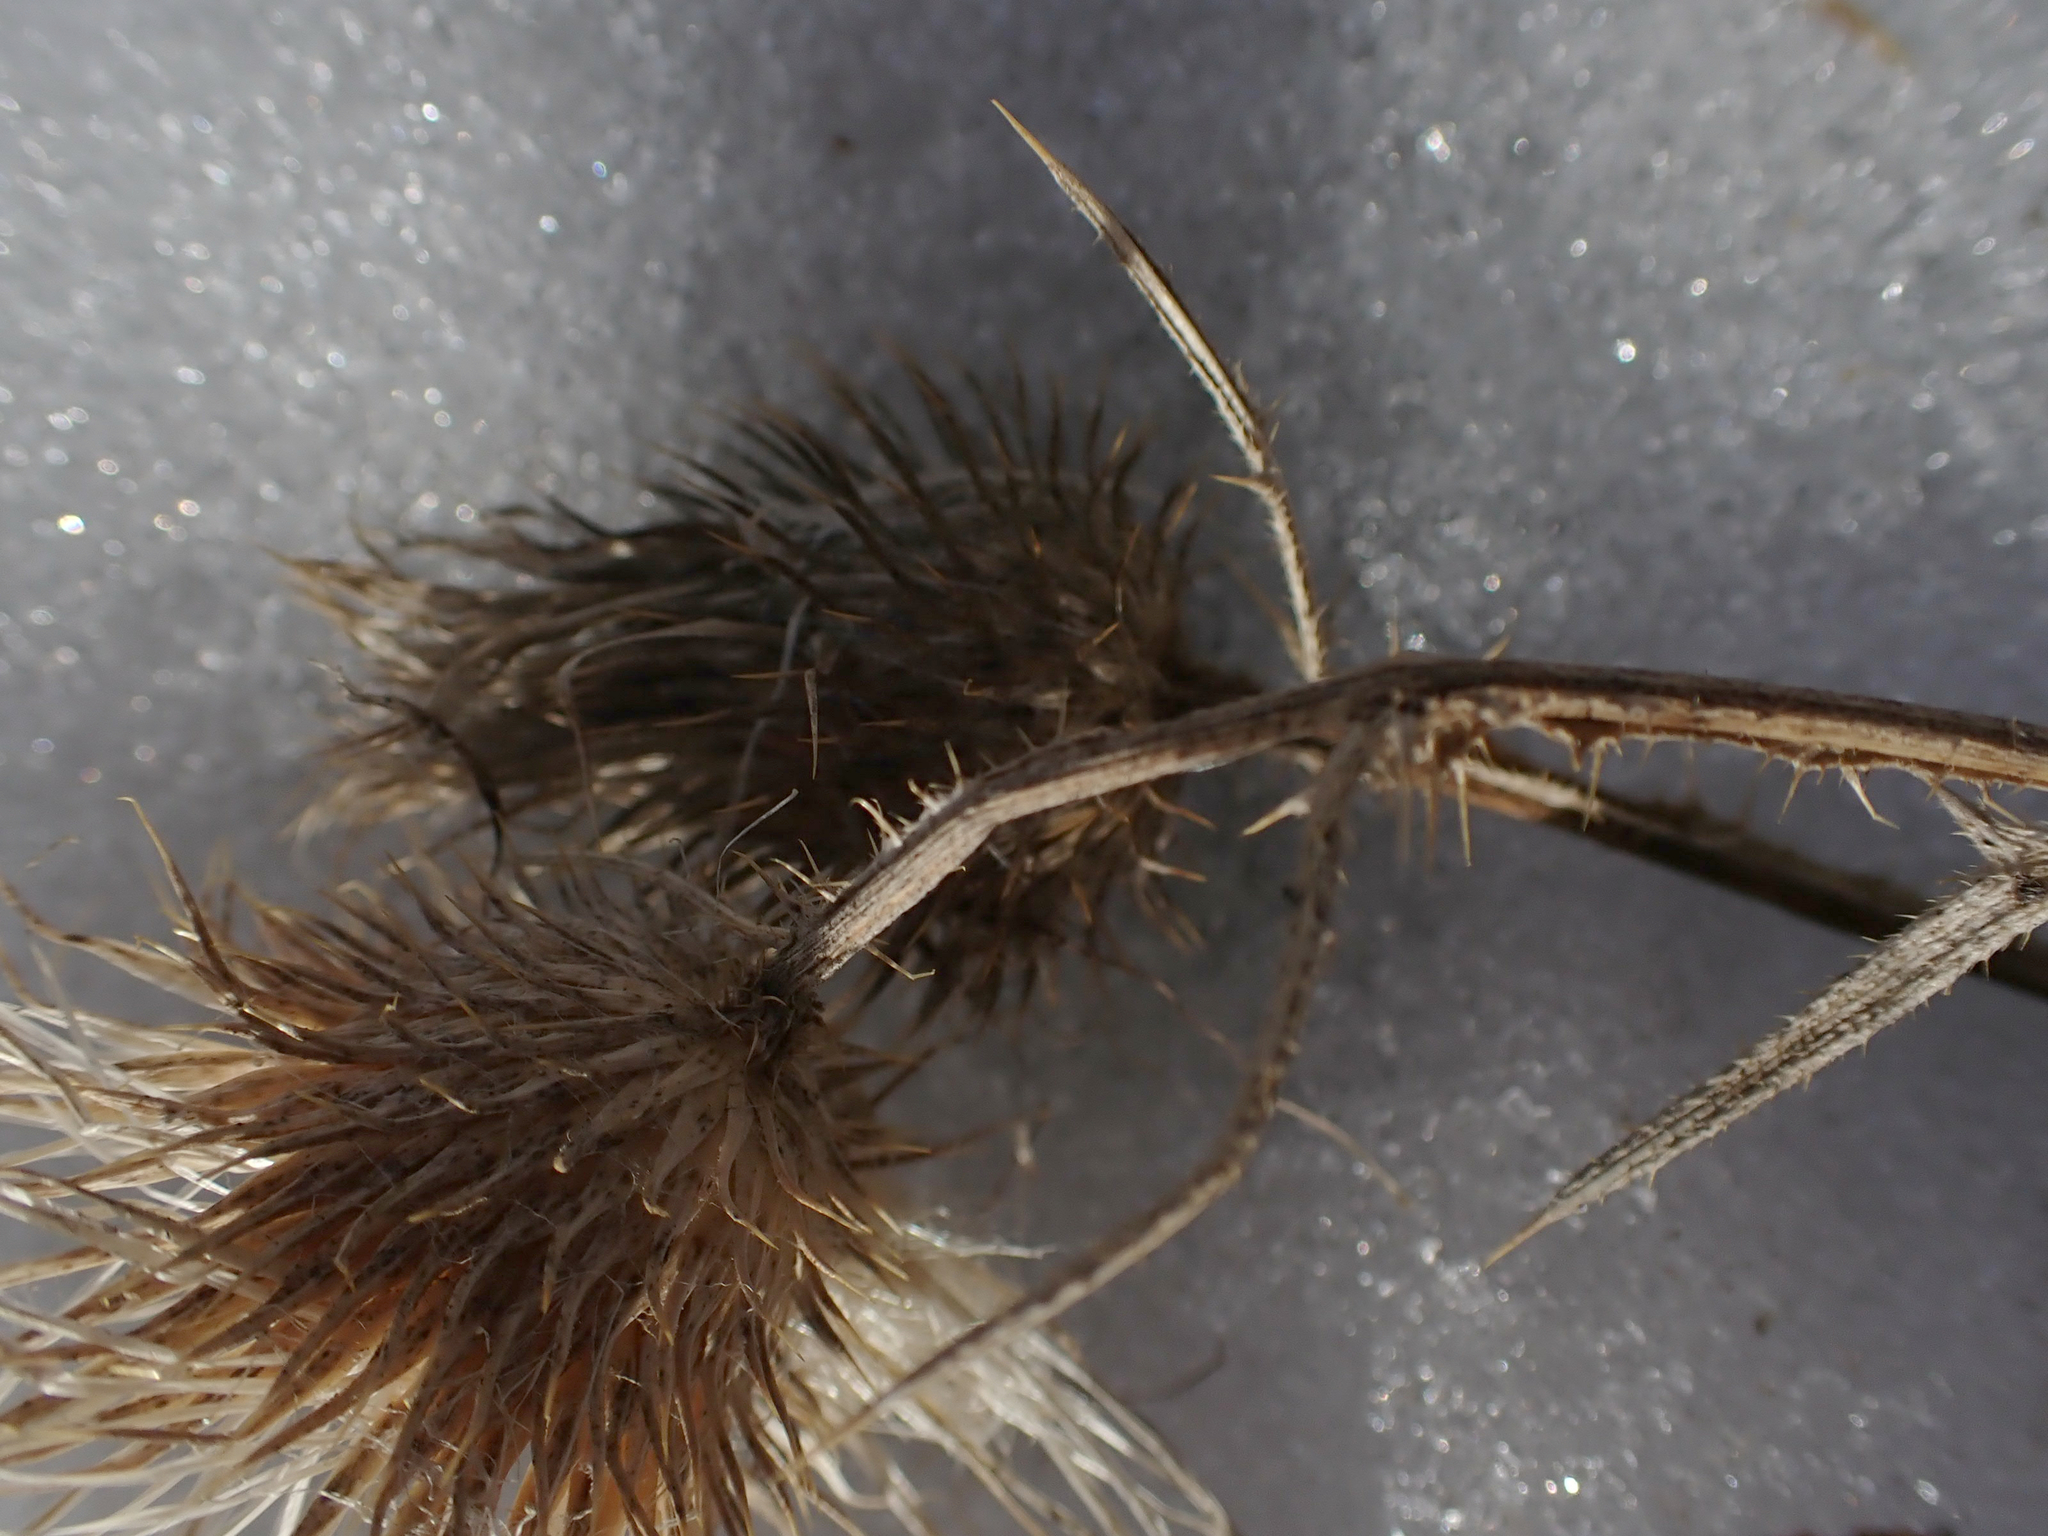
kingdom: Plantae
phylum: Tracheophyta
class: Magnoliopsida
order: Asterales
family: Asteraceae
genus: Cirsium
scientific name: Cirsium flodmanii
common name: Flodman's thistle
